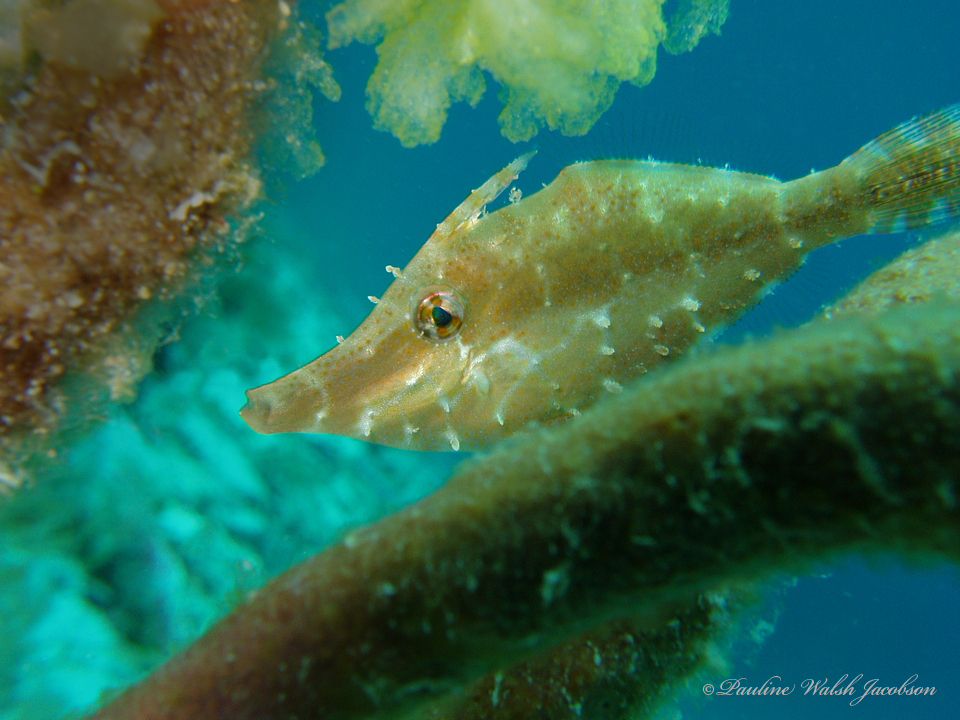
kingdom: Animalia
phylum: Chordata
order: Tetraodontiformes
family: Monacanthidae
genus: Monacanthus
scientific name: Monacanthus tuckeri
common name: Slender filefish
